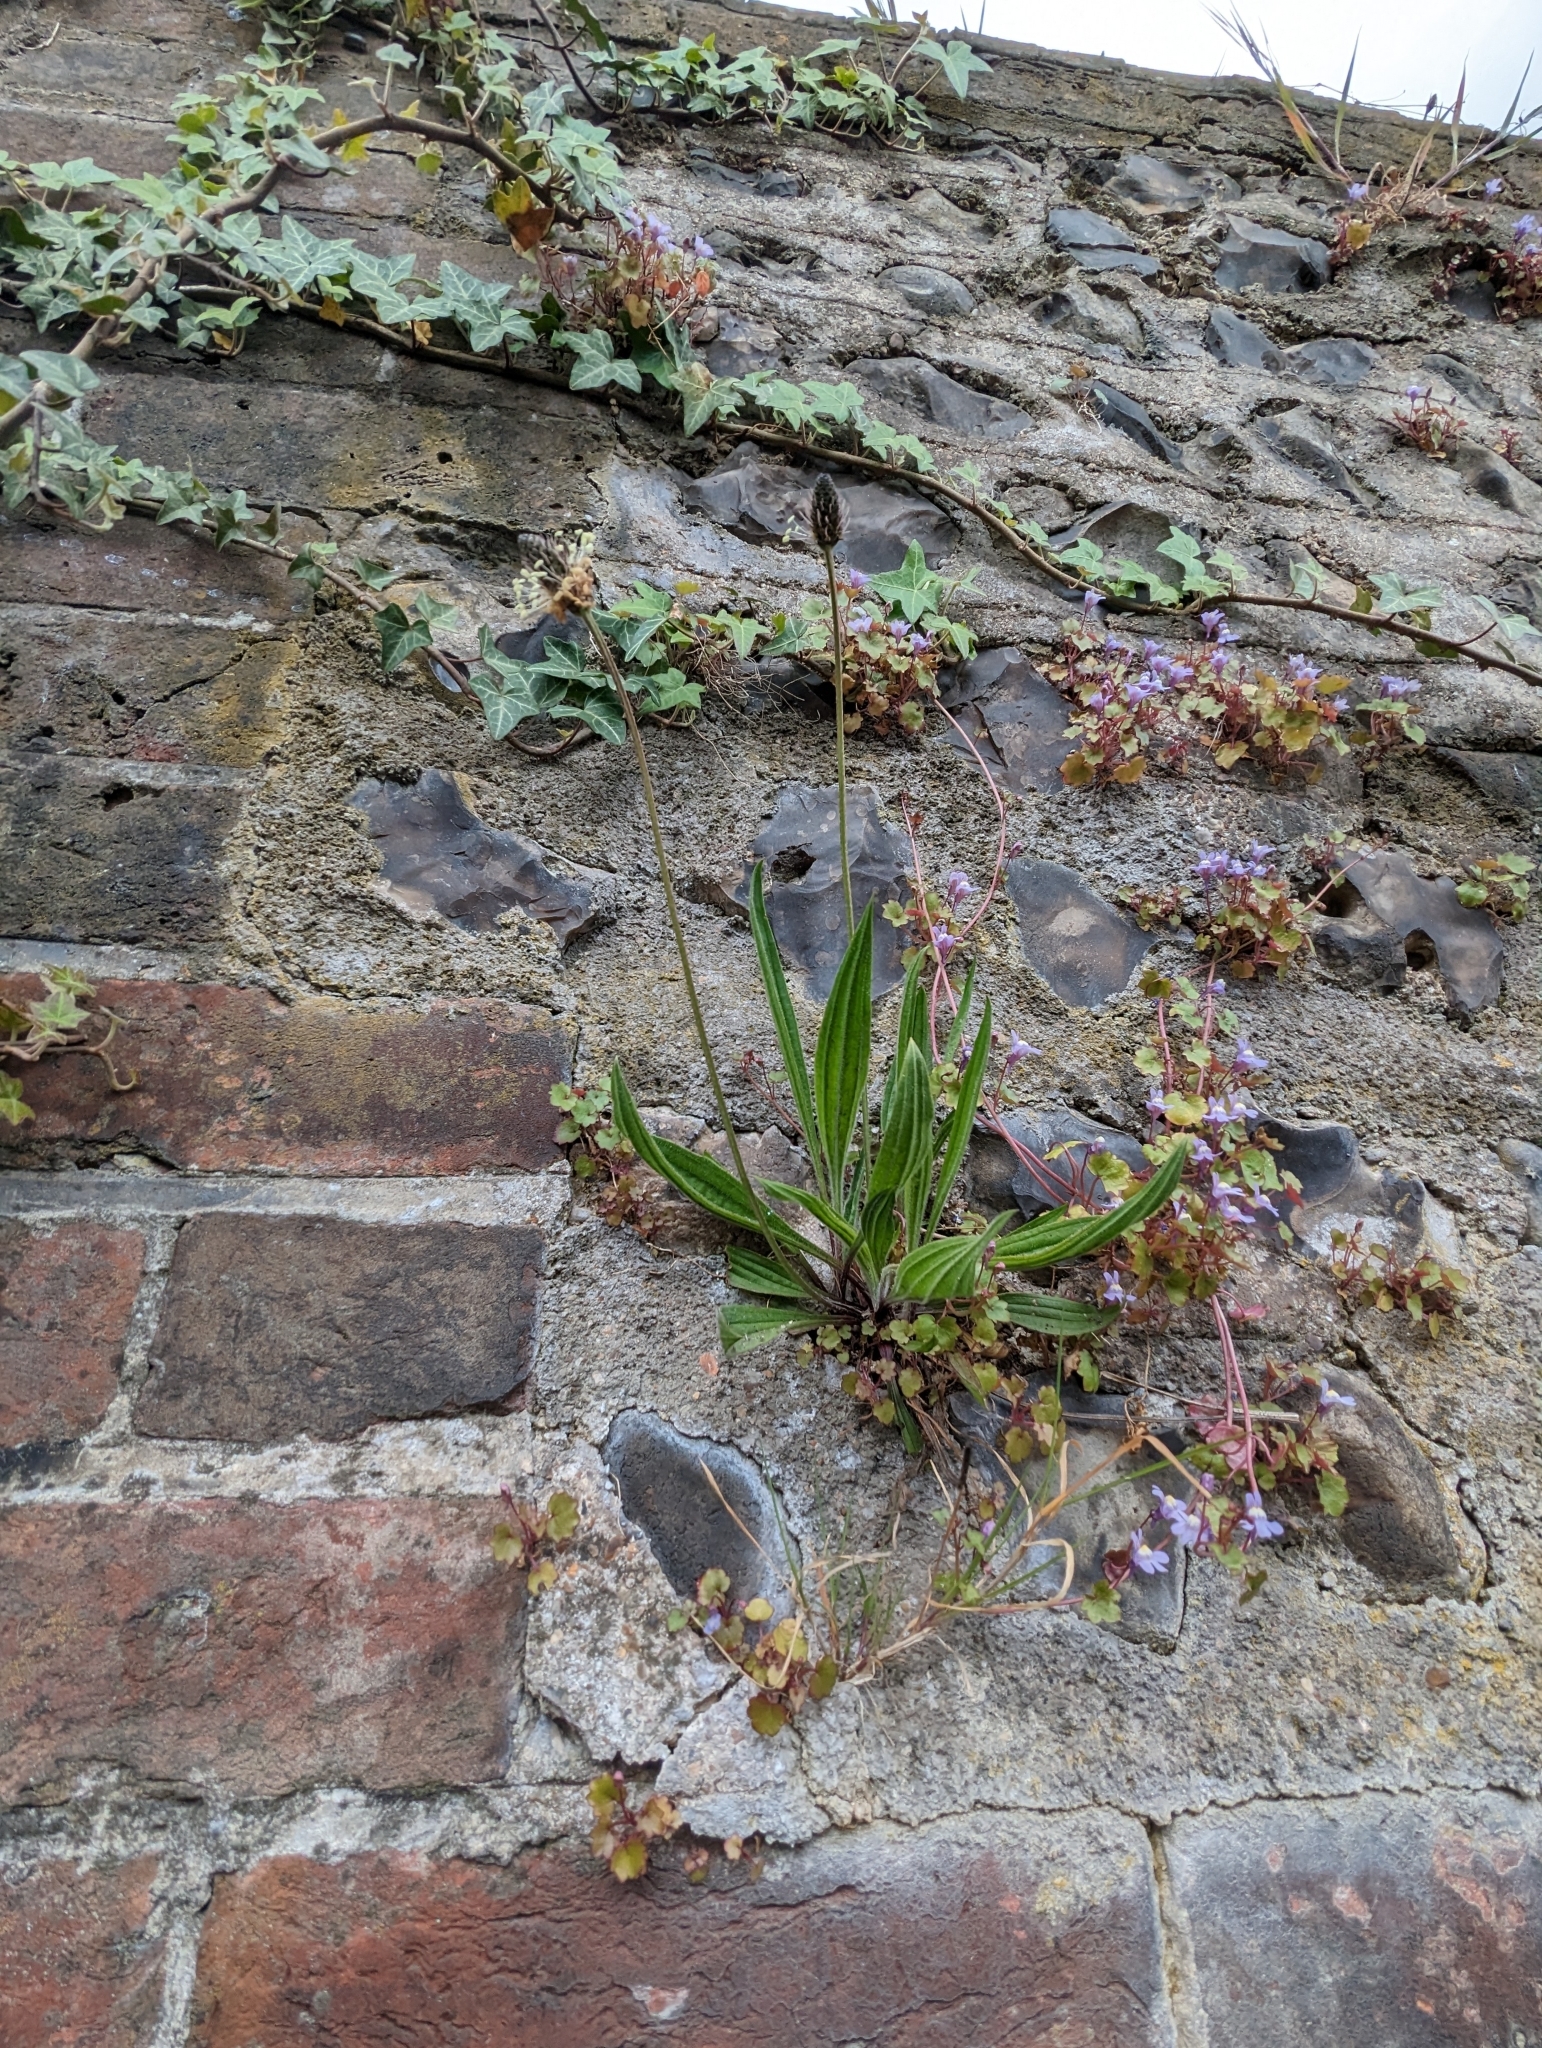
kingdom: Plantae
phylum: Tracheophyta
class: Magnoliopsida
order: Lamiales
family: Plantaginaceae
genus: Plantago
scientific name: Plantago lanceolata
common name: Ribwort plantain
